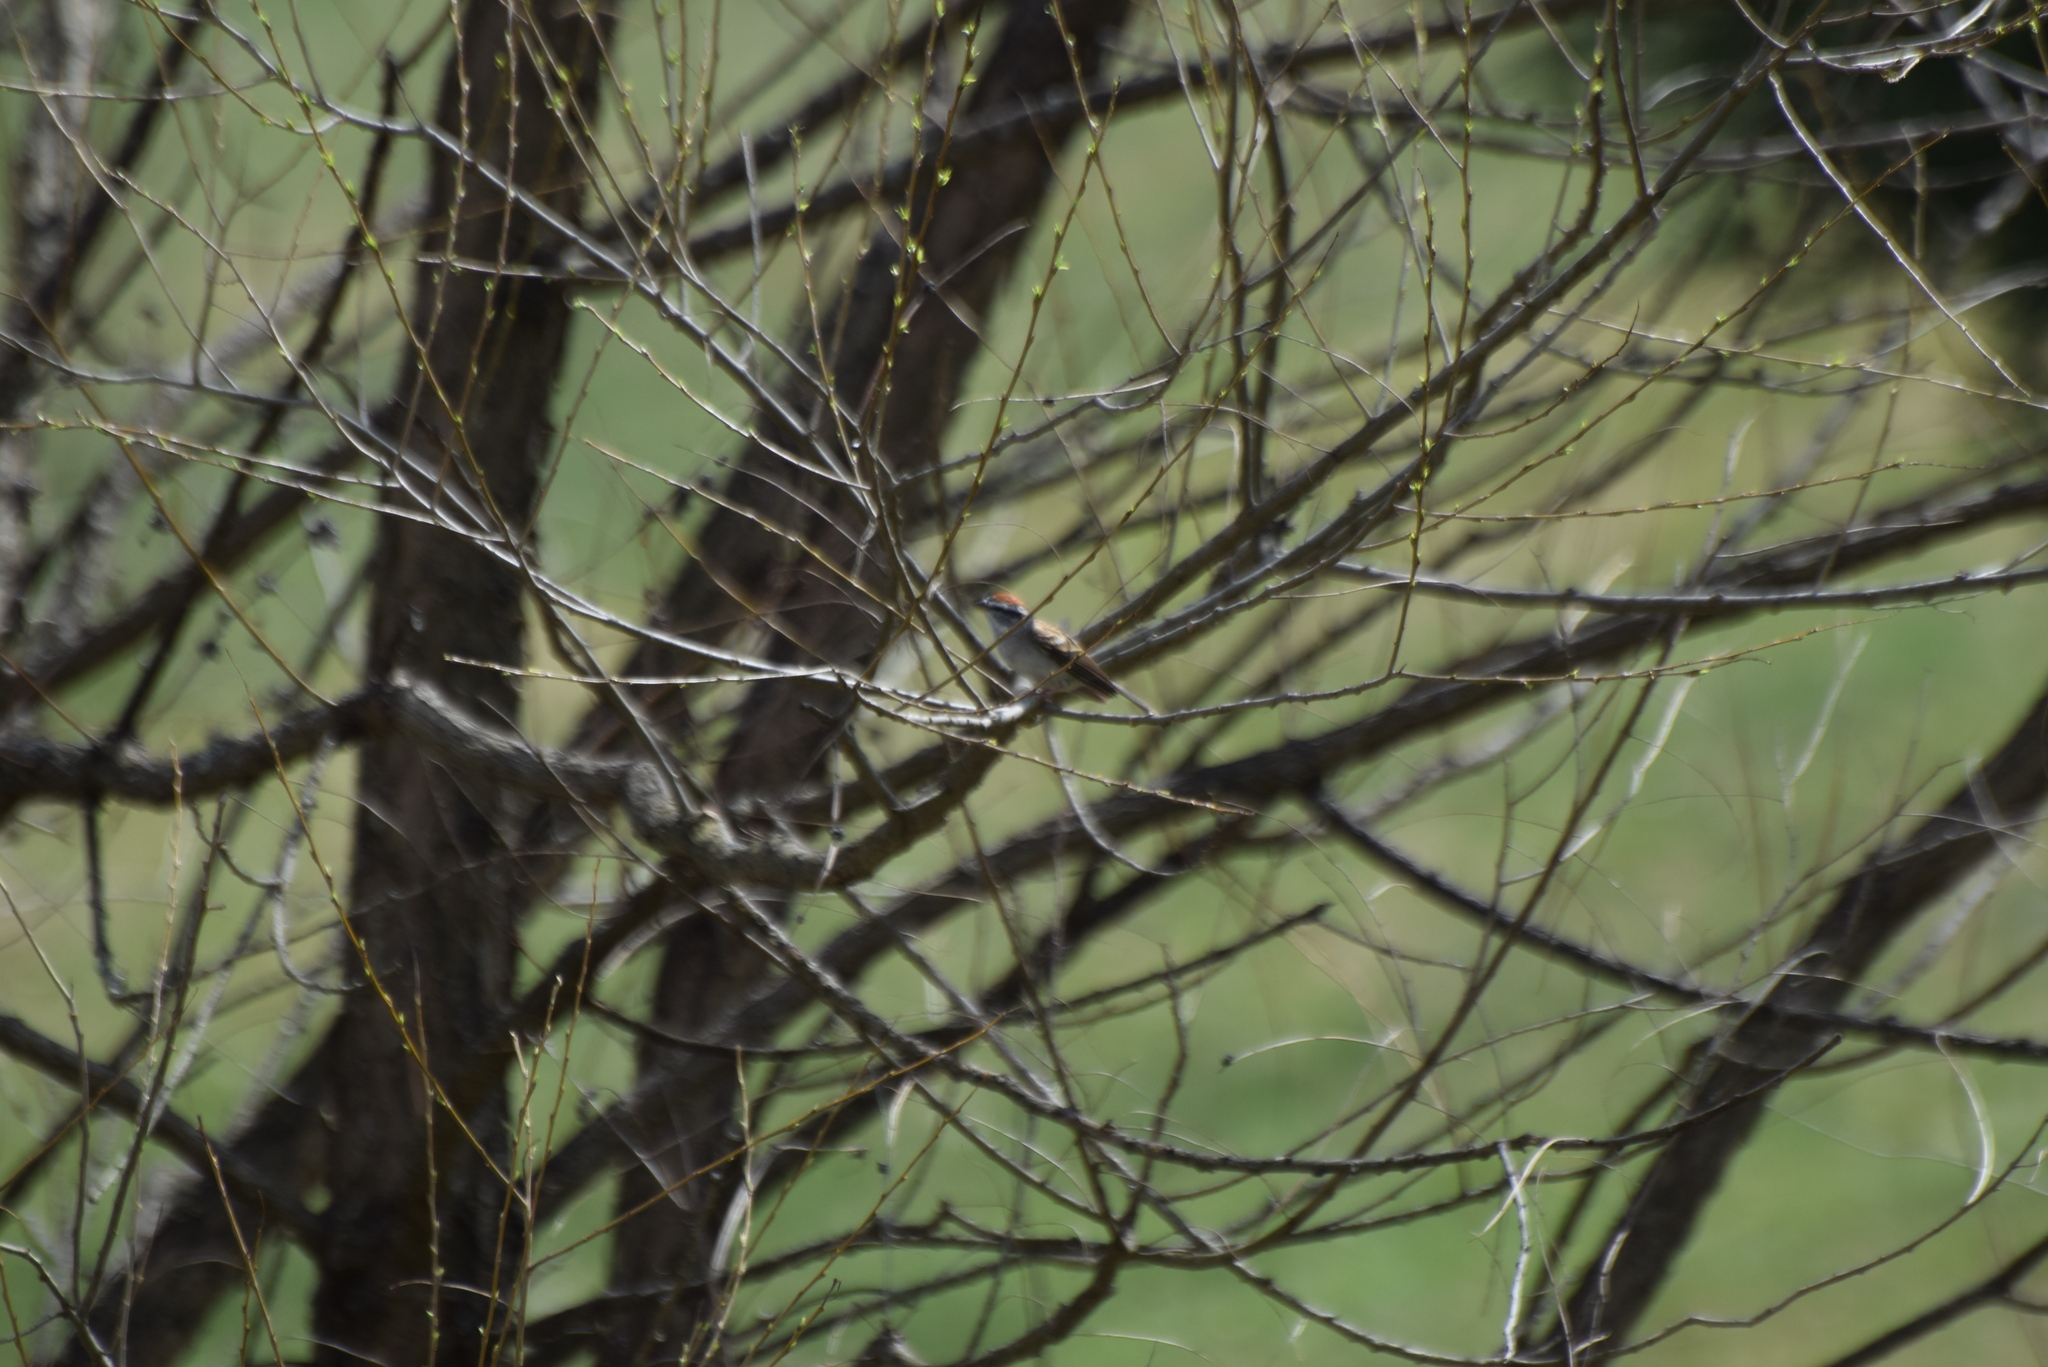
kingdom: Animalia
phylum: Chordata
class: Aves
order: Passeriformes
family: Passerellidae
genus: Spizella
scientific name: Spizella passerina
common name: Chipping sparrow
